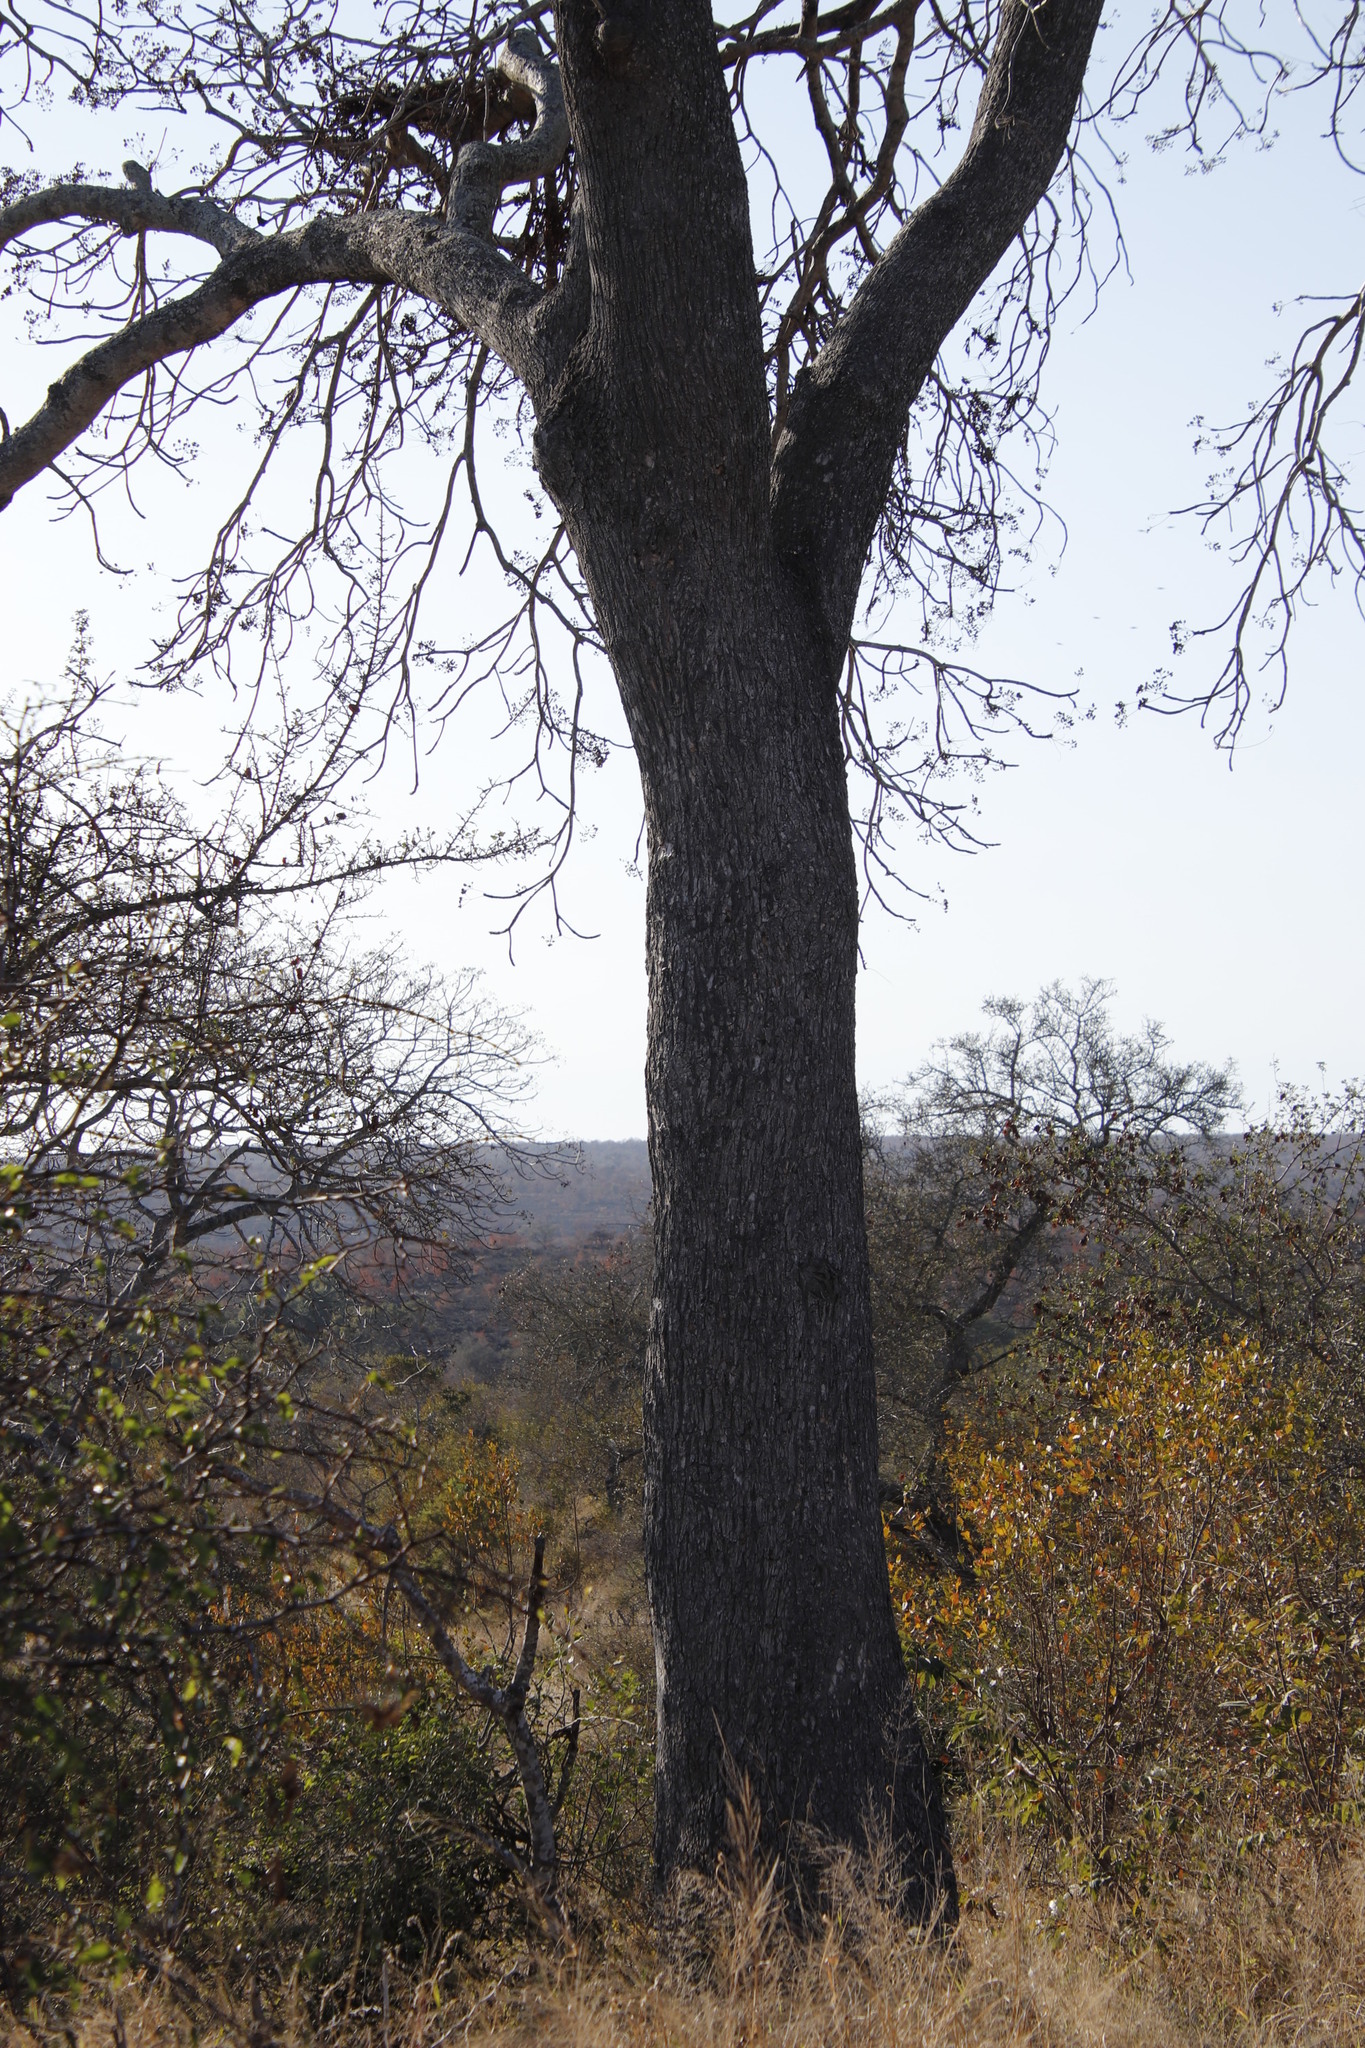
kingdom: Plantae
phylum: Tracheophyta
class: Magnoliopsida
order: Sapindales
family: Kirkiaceae
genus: Kirkia
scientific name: Kirkia acuminata
